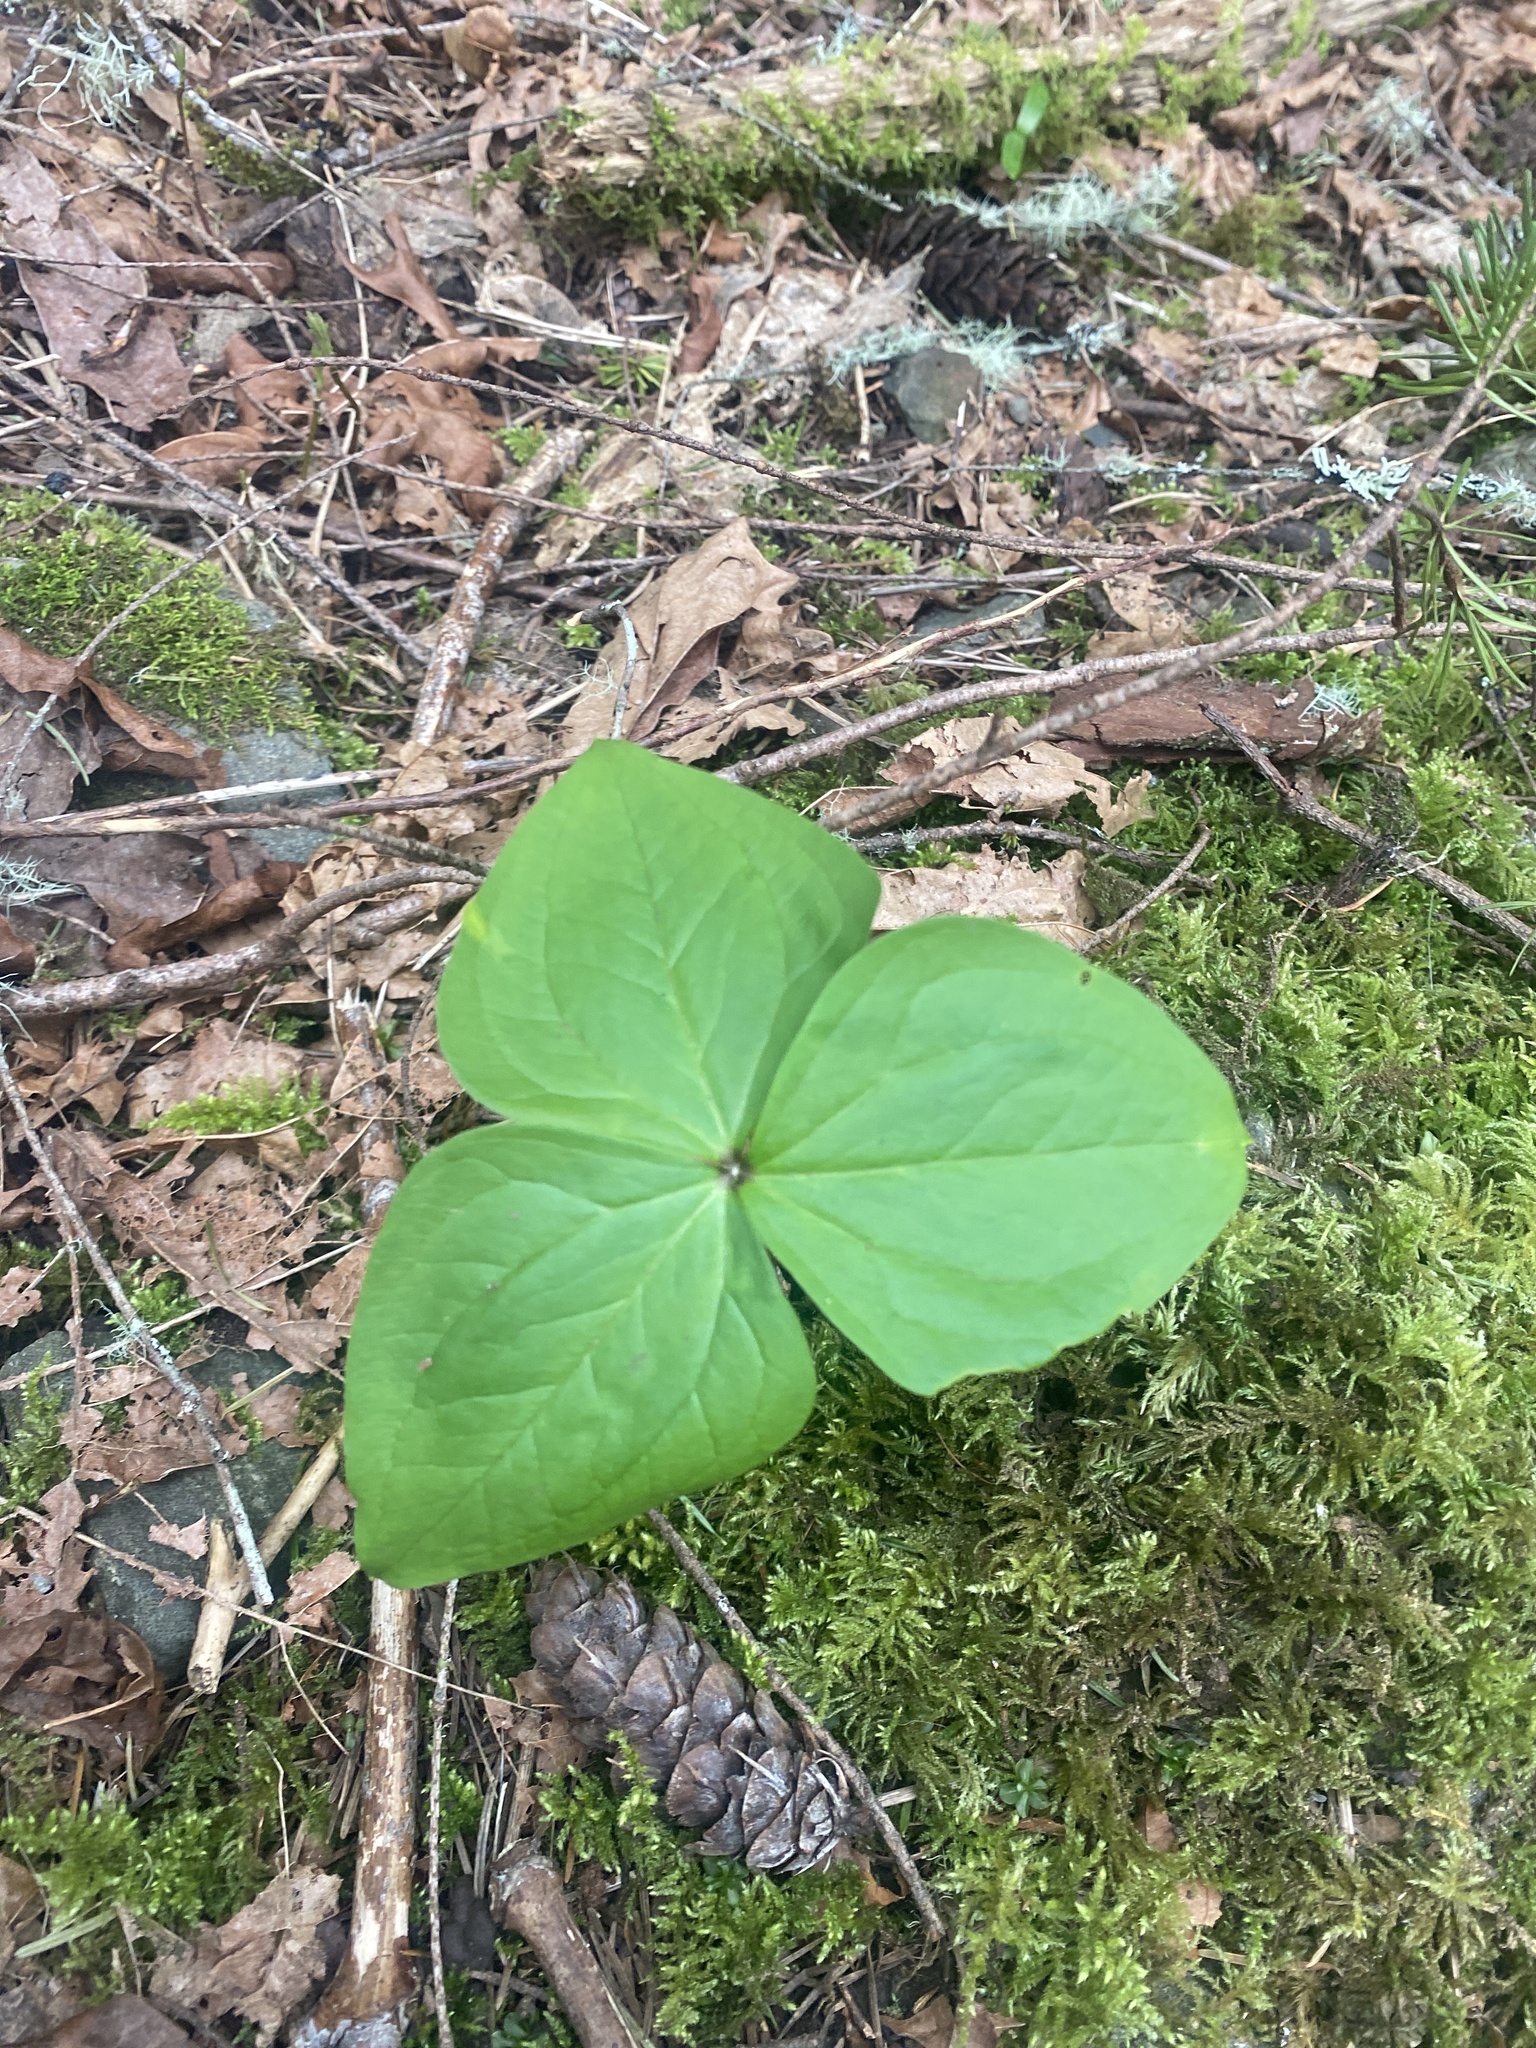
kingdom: Plantae
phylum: Tracheophyta
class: Liliopsida
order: Liliales
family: Melanthiaceae
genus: Trillium
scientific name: Trillium ovatum
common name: Pacific trillium
